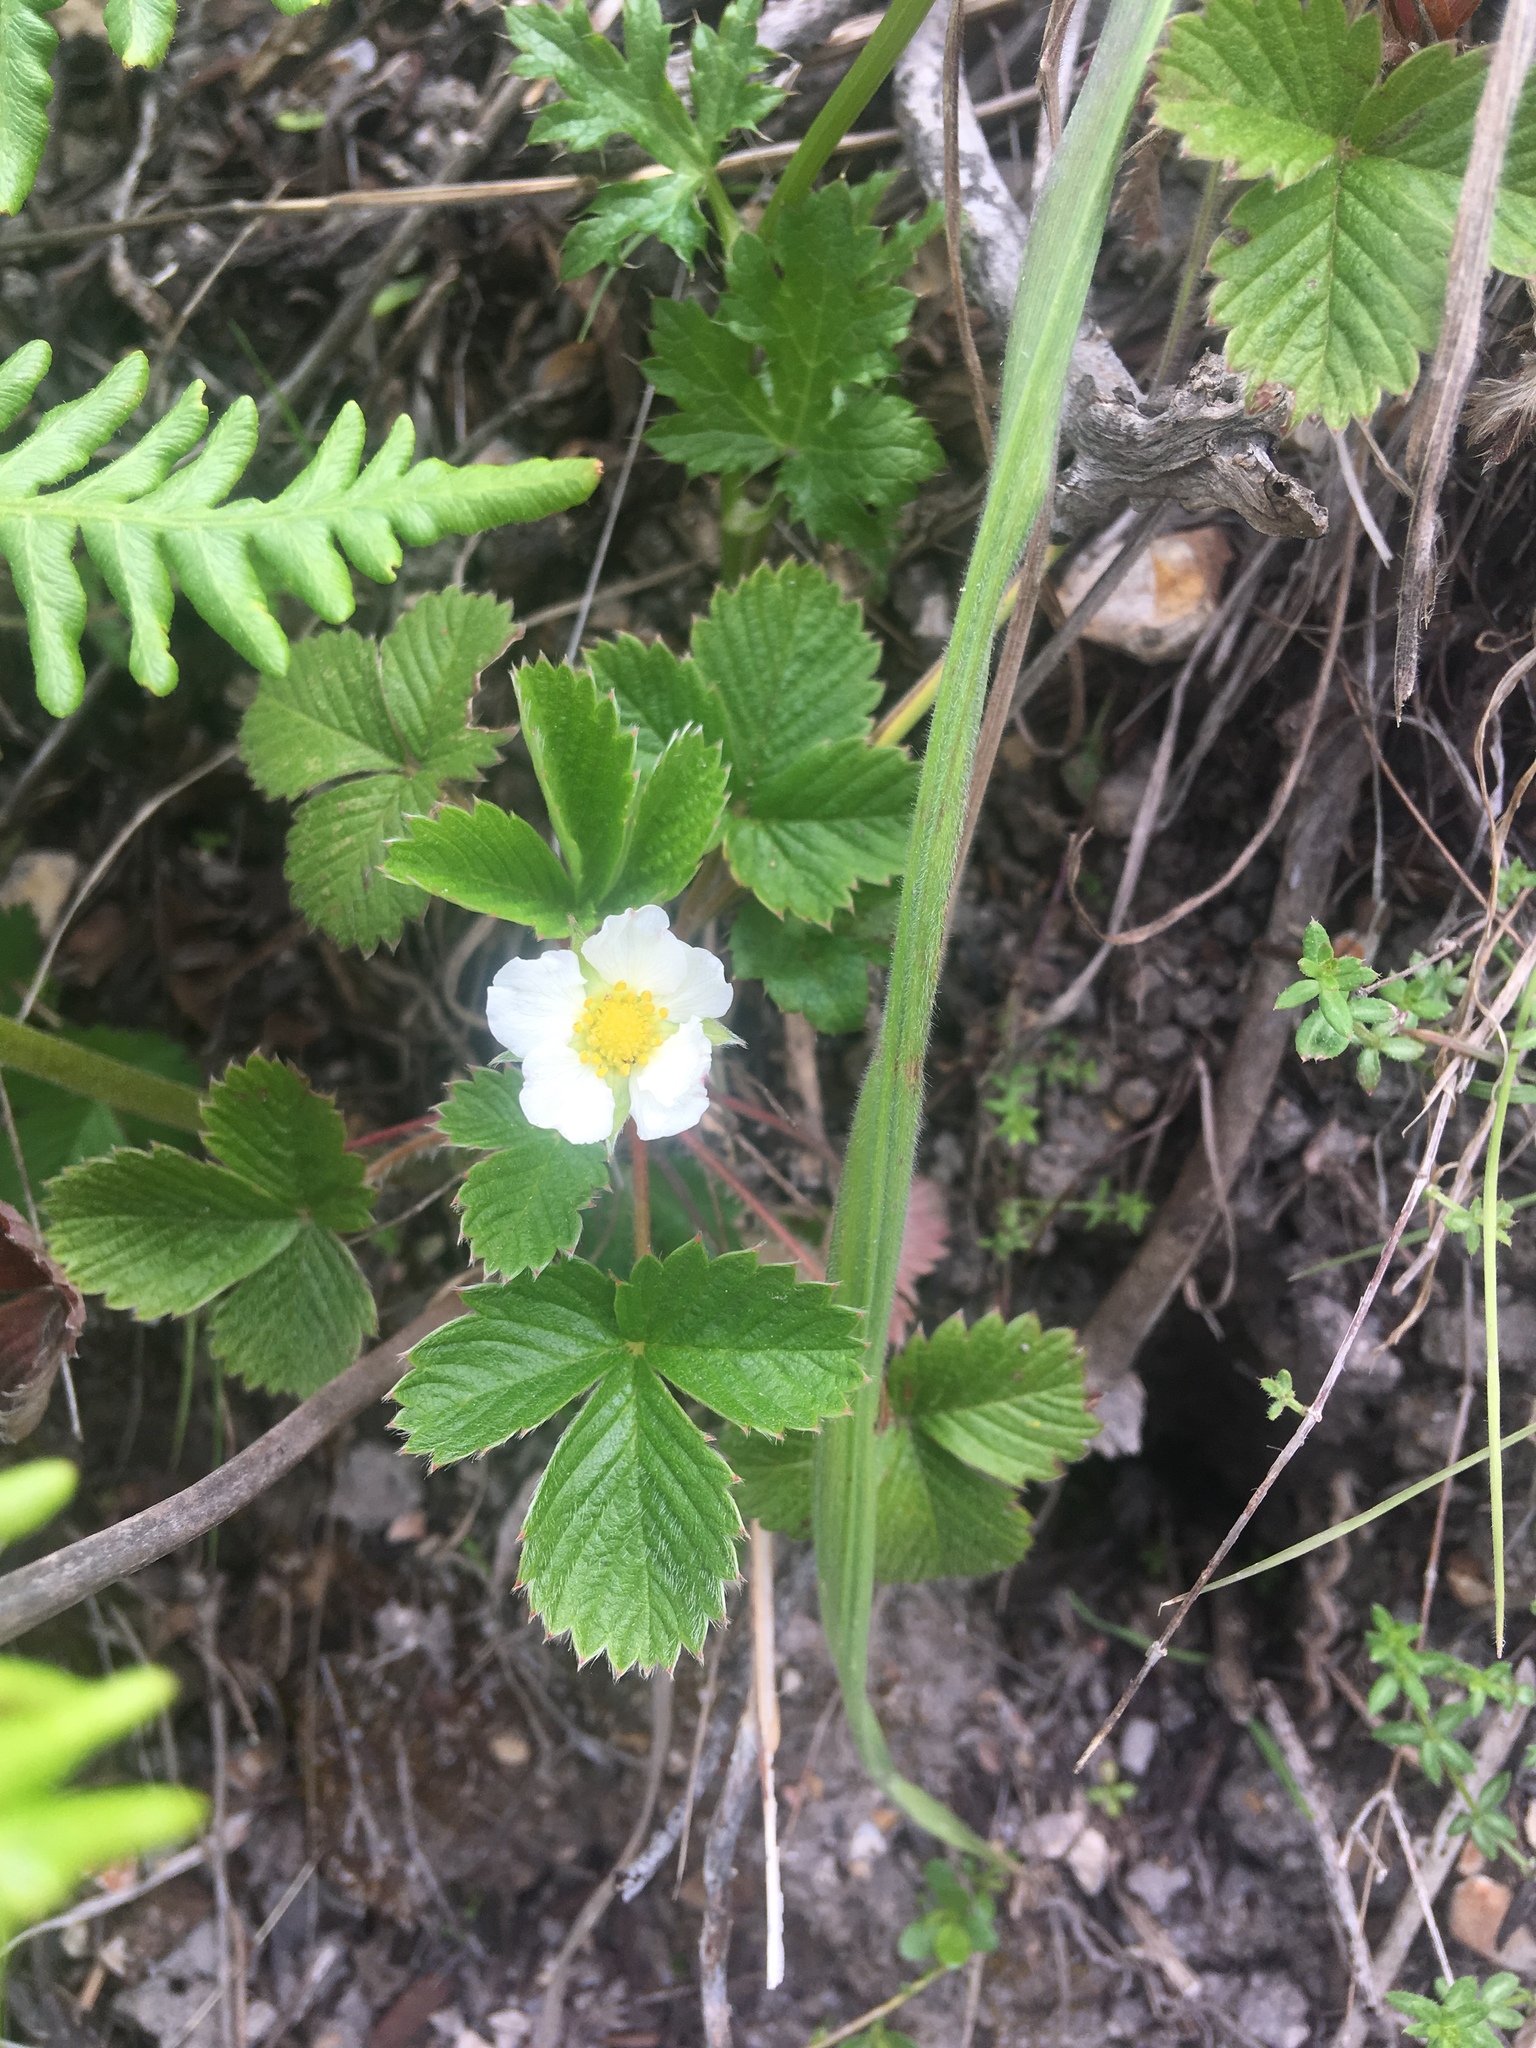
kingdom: Plantae
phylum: Tracheophyta
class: Magnoliopsida
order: Rosales
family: Rosaceae
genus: Fragaria
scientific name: Fragaria vesca
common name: Wild strawberry
